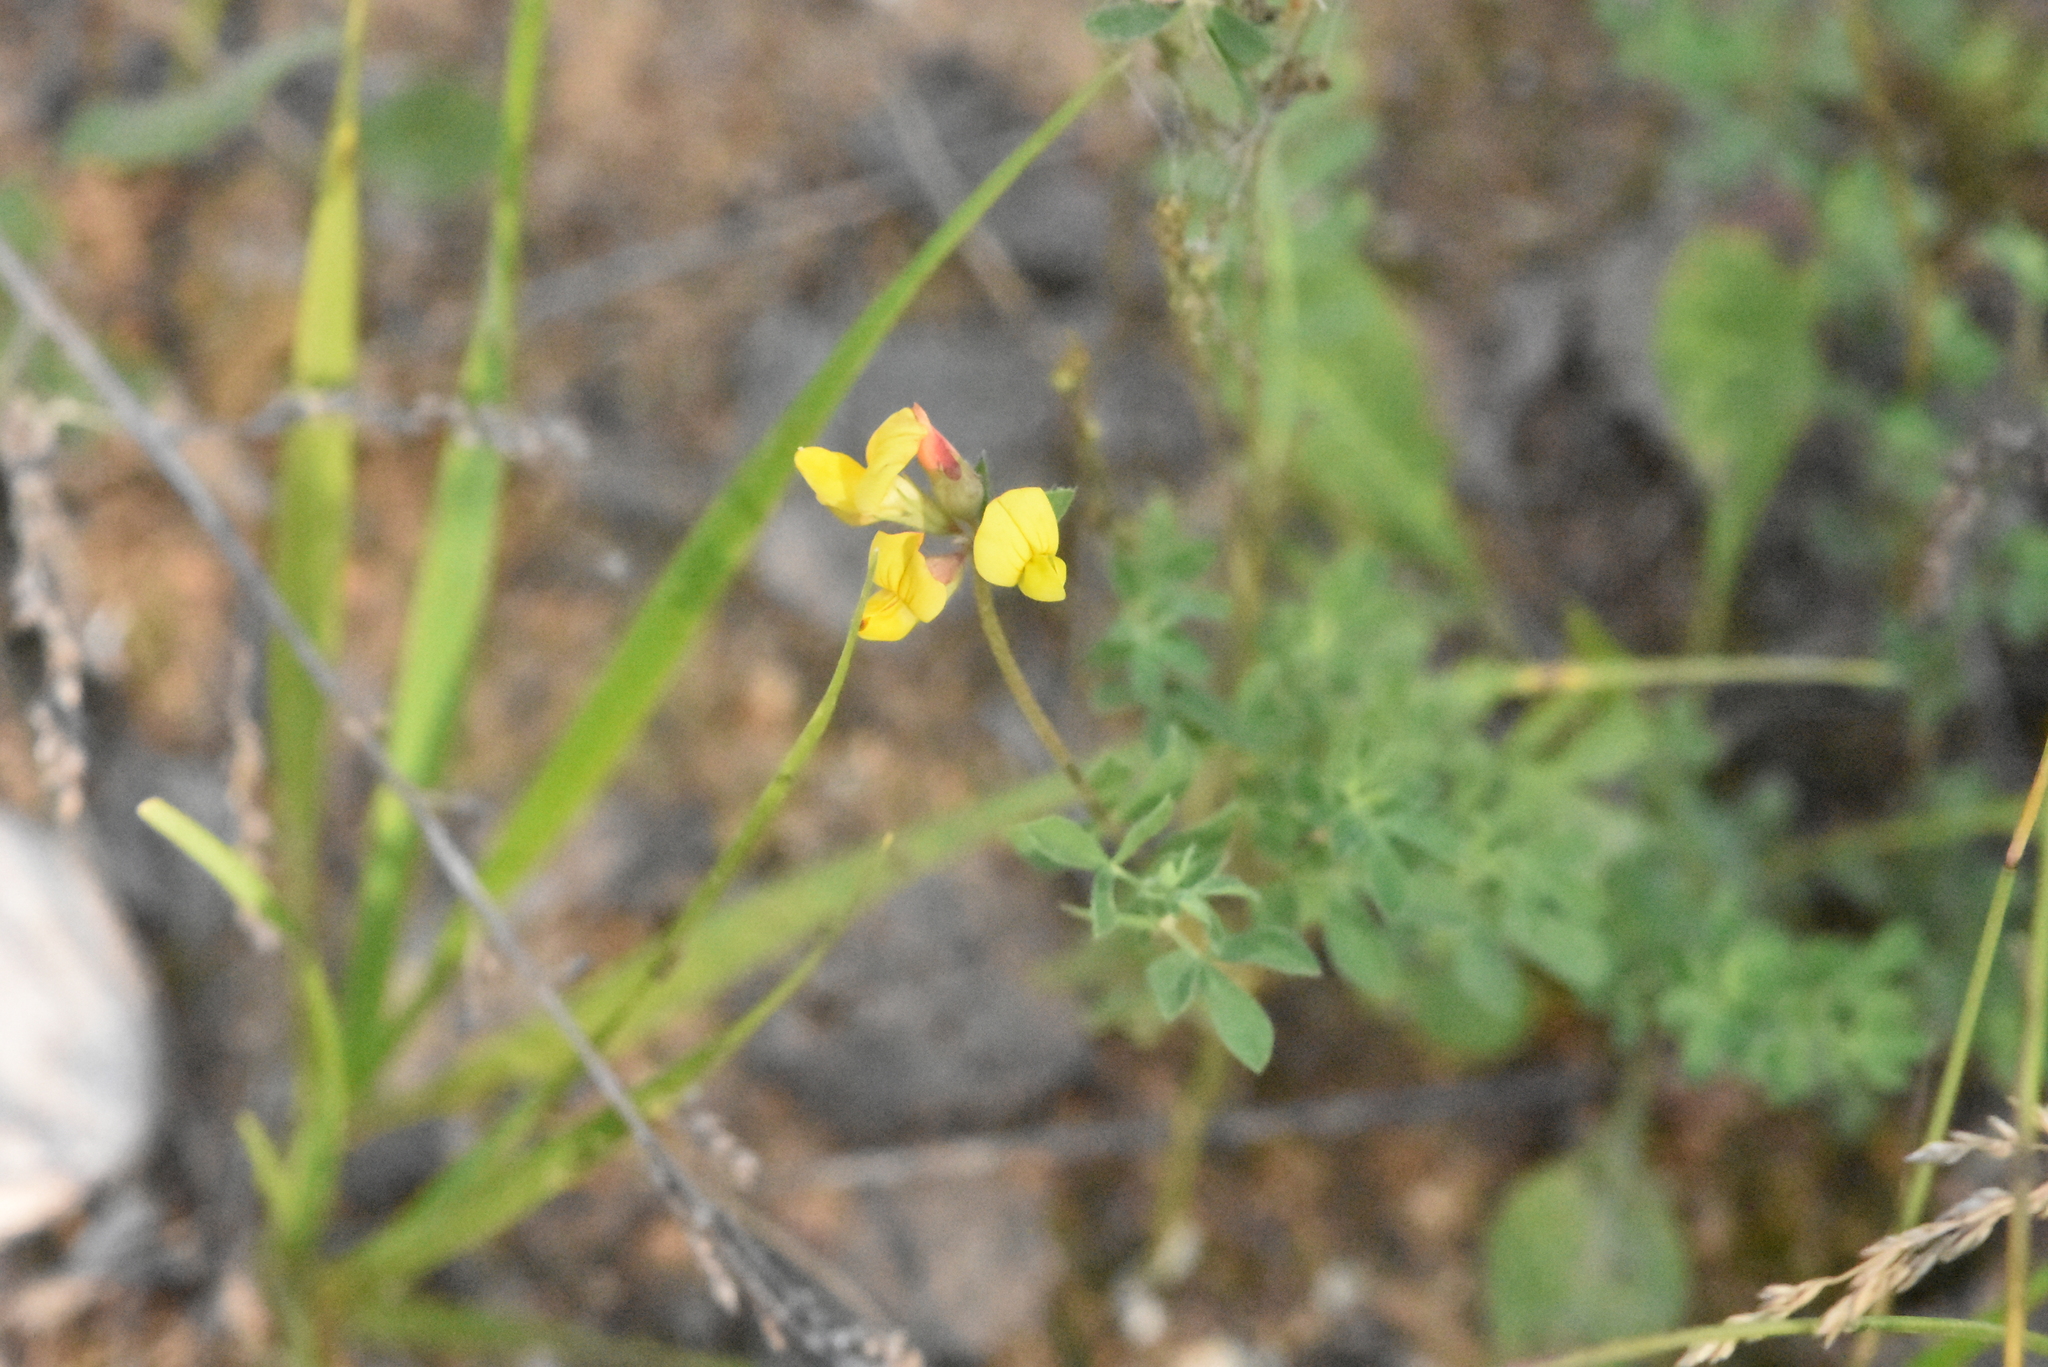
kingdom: Plantae
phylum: Tracheophyta
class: Magnoliopsida
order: Fabales
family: Fabaceae
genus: Lotus
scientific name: Lotus corniculatus
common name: Common bird's-foot-trefoil
